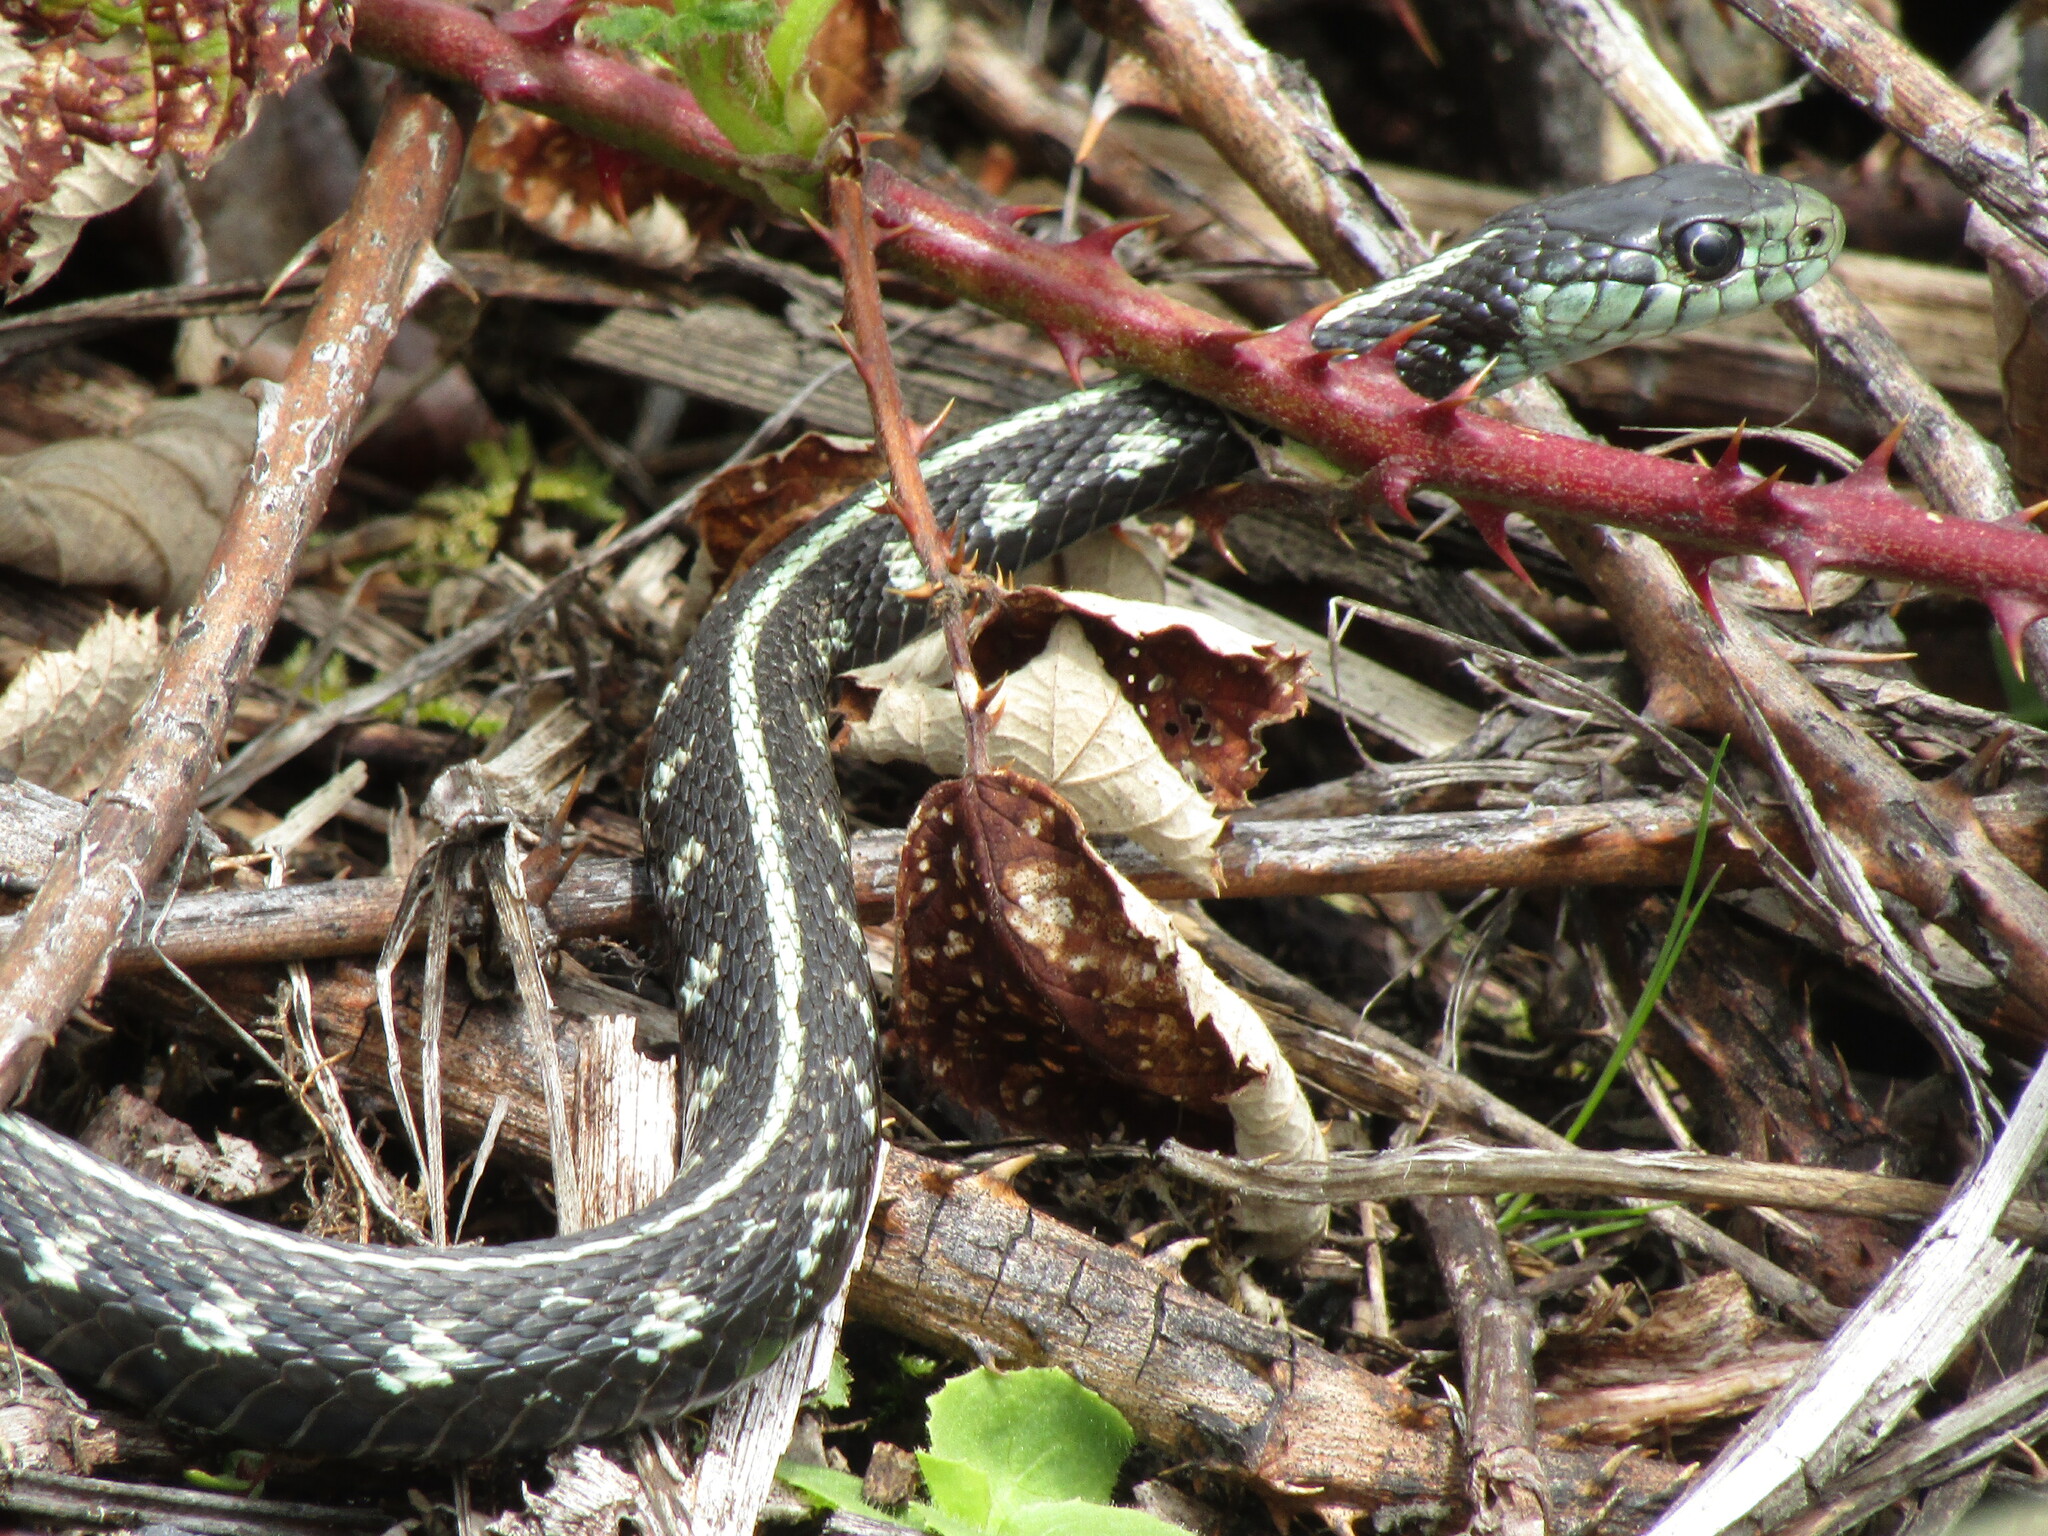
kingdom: Animalia
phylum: Chordata
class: Squamata
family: Colubridae
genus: Thamnophis
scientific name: Thamnophis sirtalis
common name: Common garter snake
